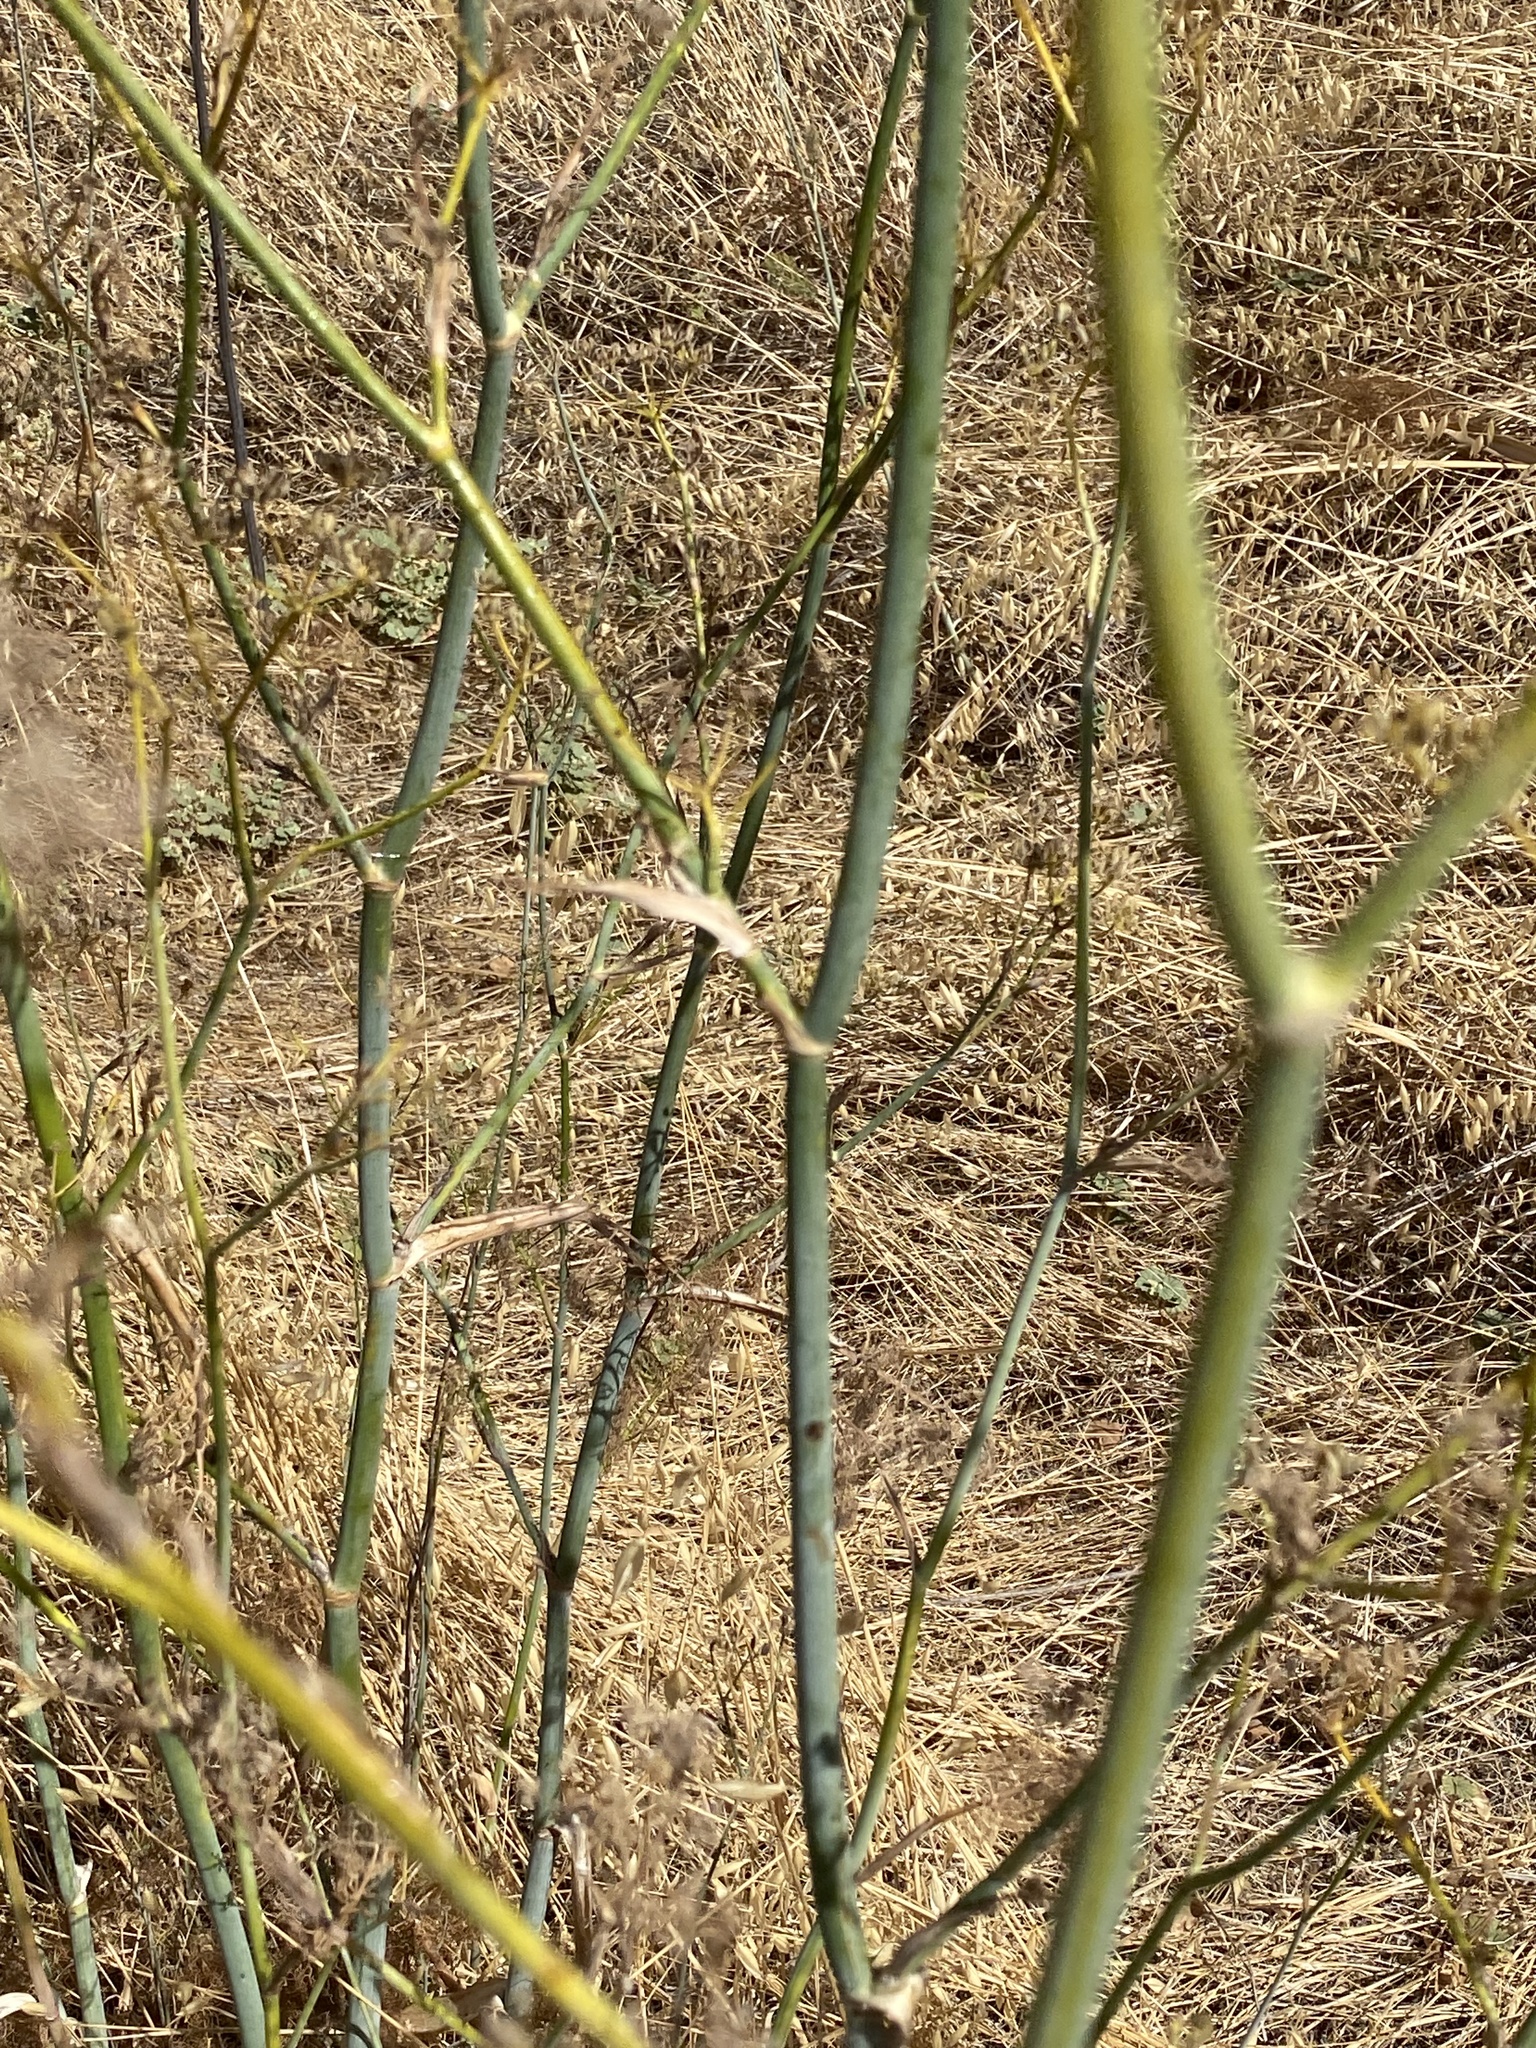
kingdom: Plantae
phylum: Tracheophyta
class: Magnoliopsida
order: Apiales
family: Apiaceae
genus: Foeniculum
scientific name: Foeniculum vulgare
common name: Fennel
